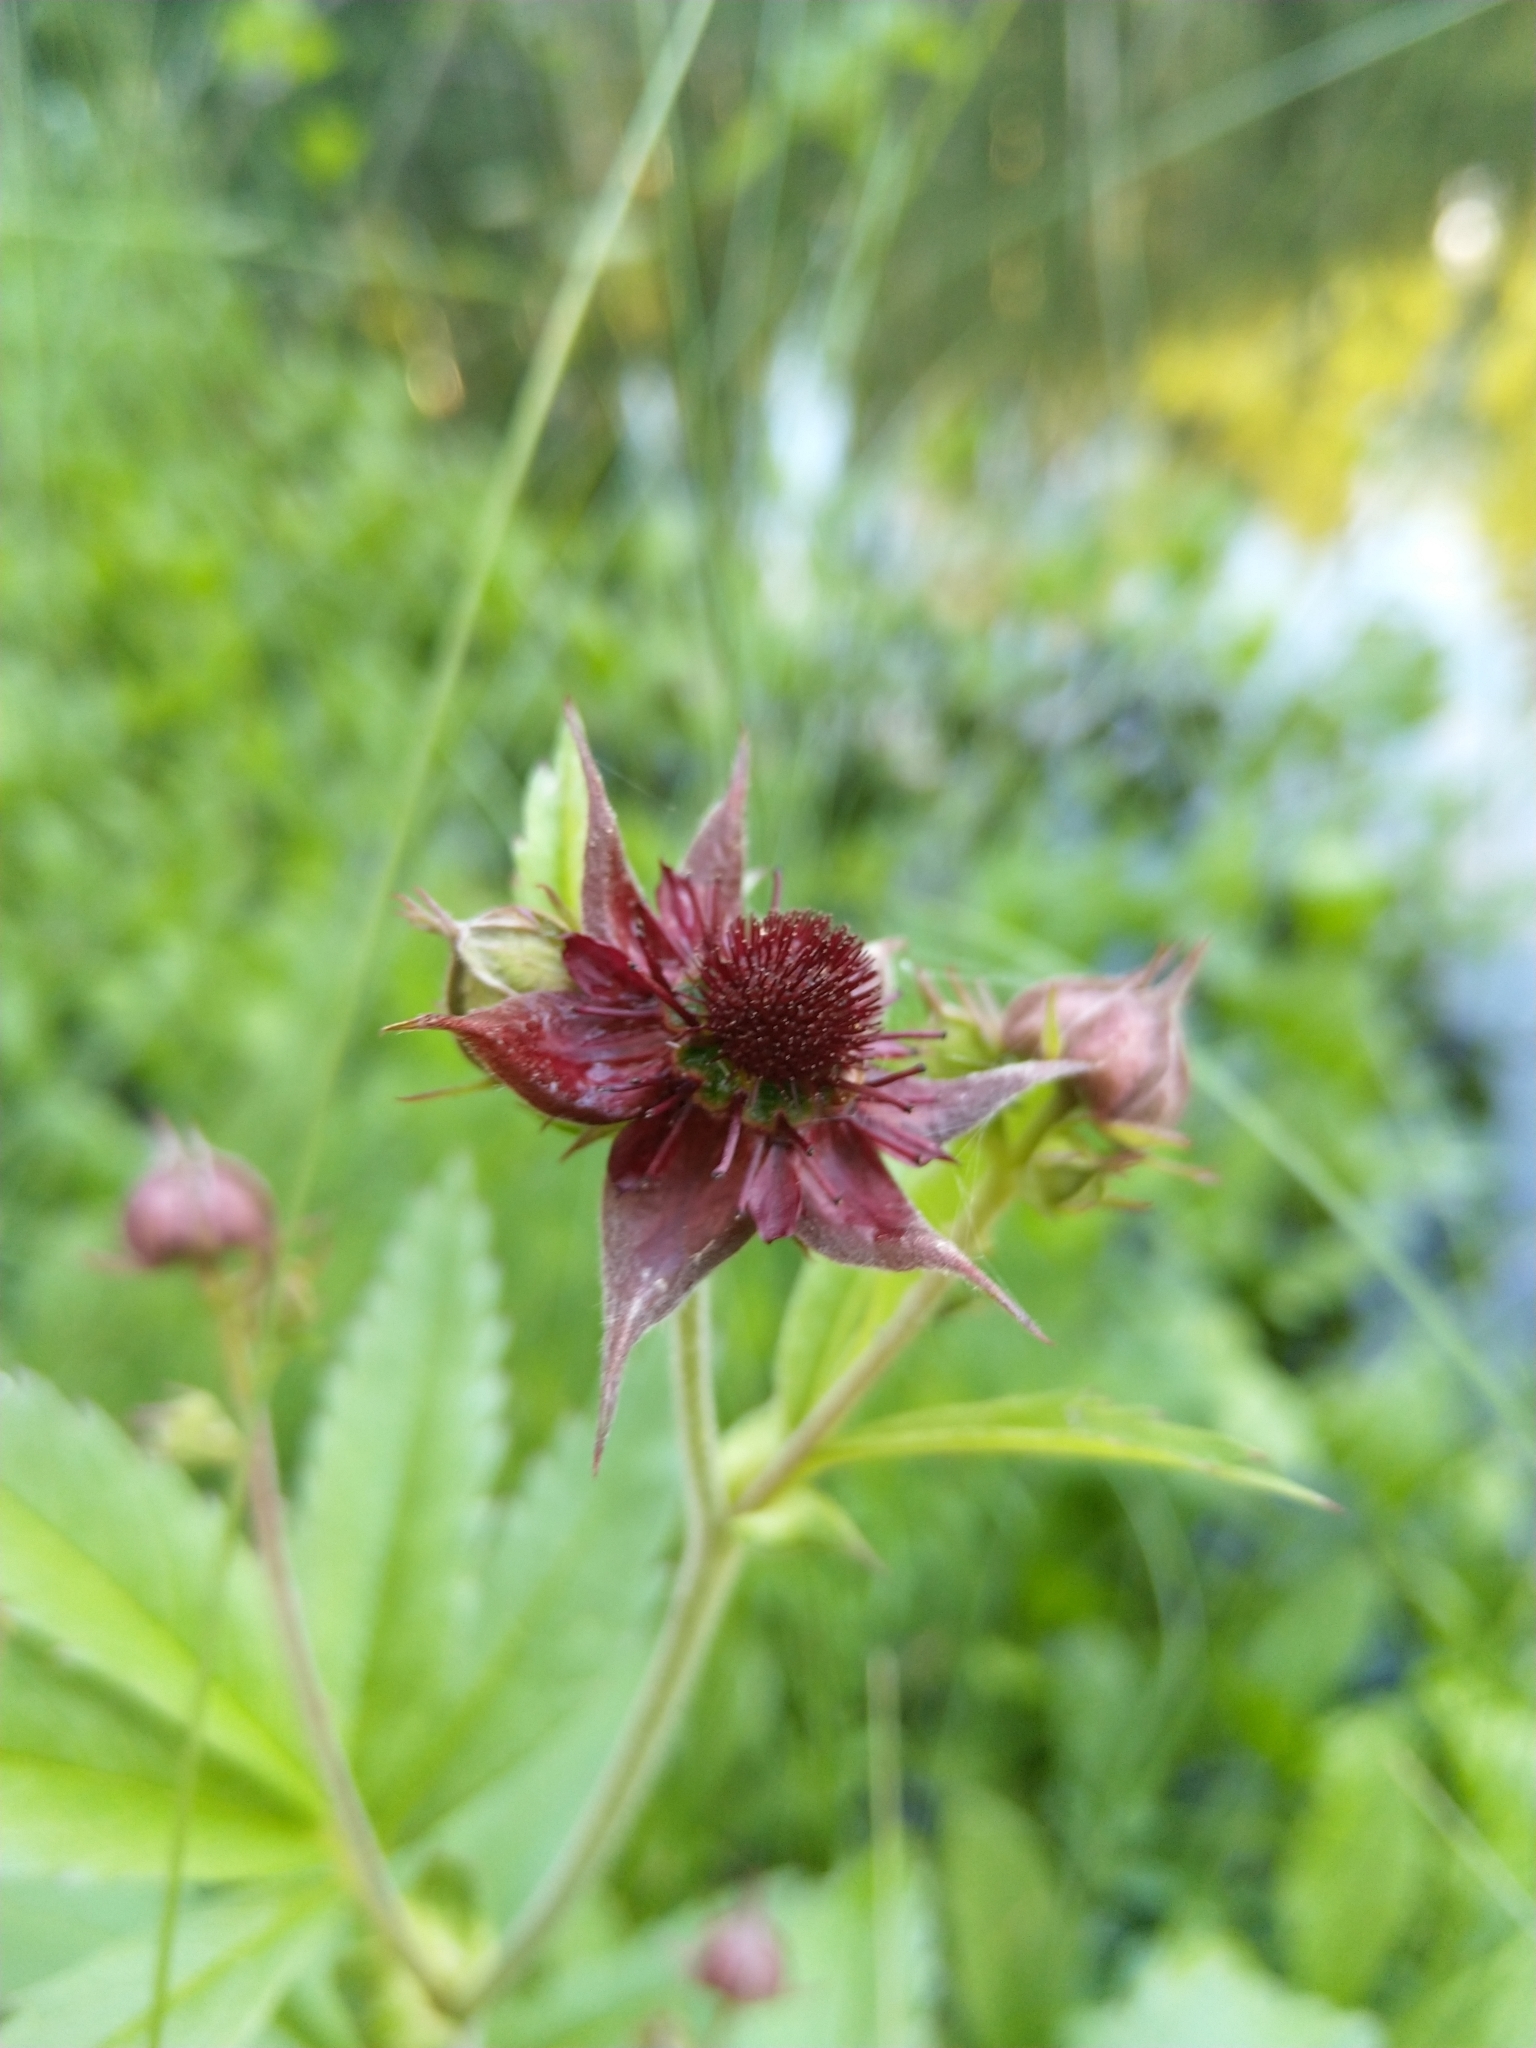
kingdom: Plantae
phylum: Tracheophyta
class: Magnoliopsida
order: Rosales
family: Rosaceae
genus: Comarum
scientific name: Comarum palustre
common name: Marsh cinquefoil
